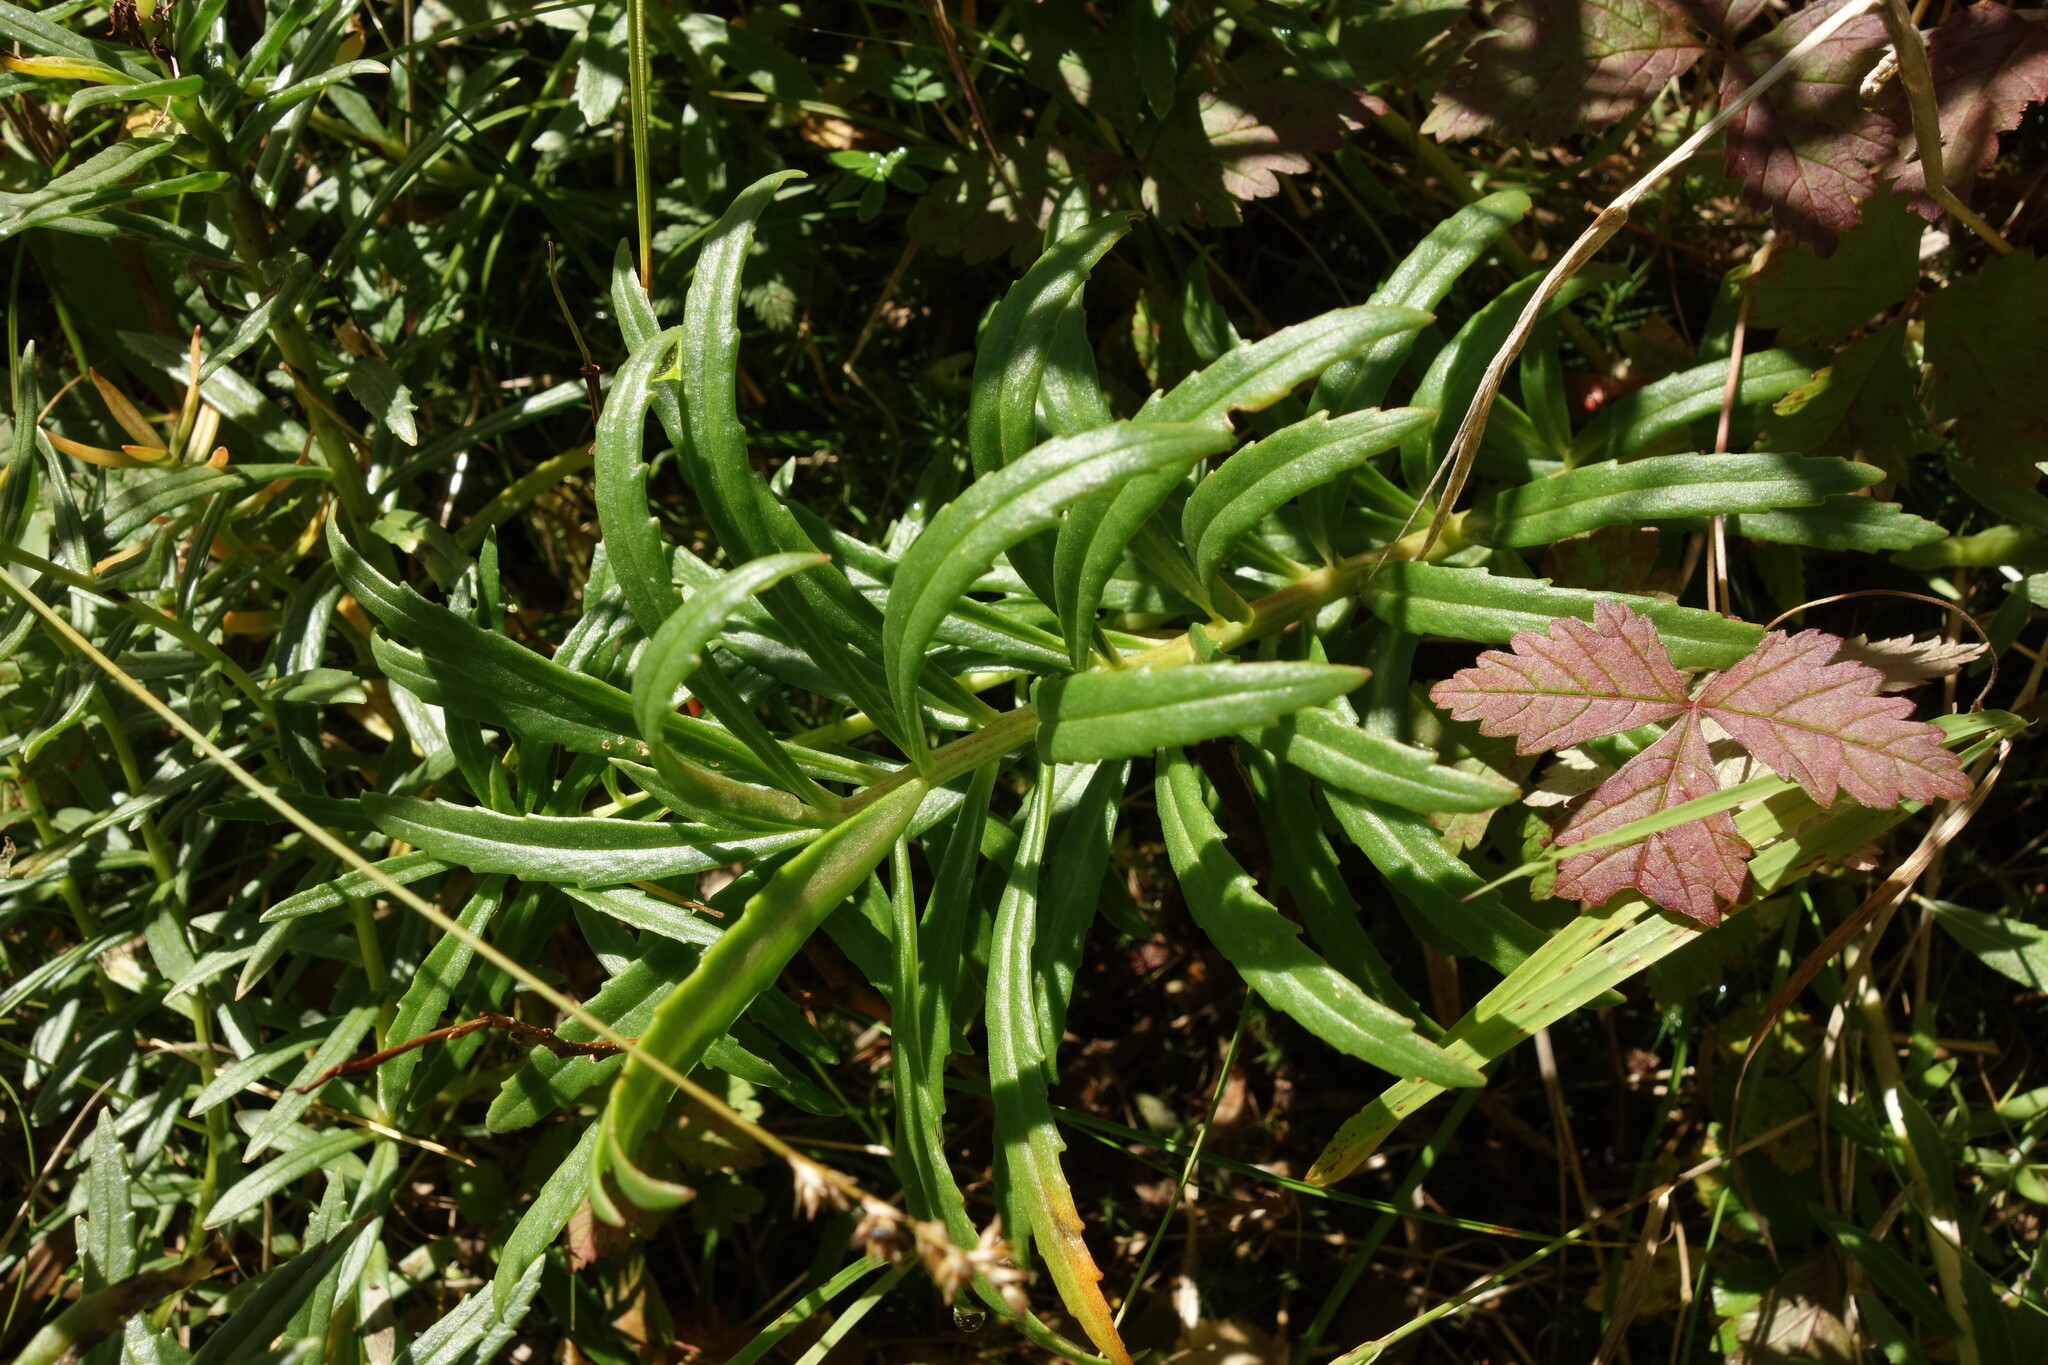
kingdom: Plantae
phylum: Tracheophyta
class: Magnoliopsida
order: Saxifragales
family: Crassulaceae
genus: Rhodiola
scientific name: Rhodiola stephani
